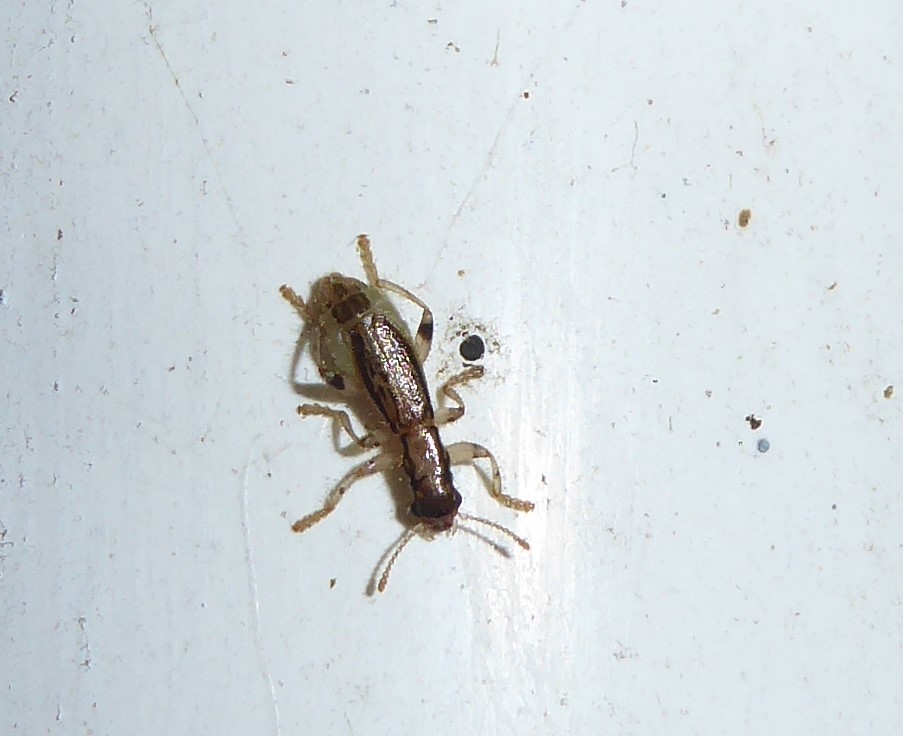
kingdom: Animalia
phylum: Arthropoda
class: Insecta
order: Coleoptera
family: Cleridae
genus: Lemidia
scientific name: Lemidia
